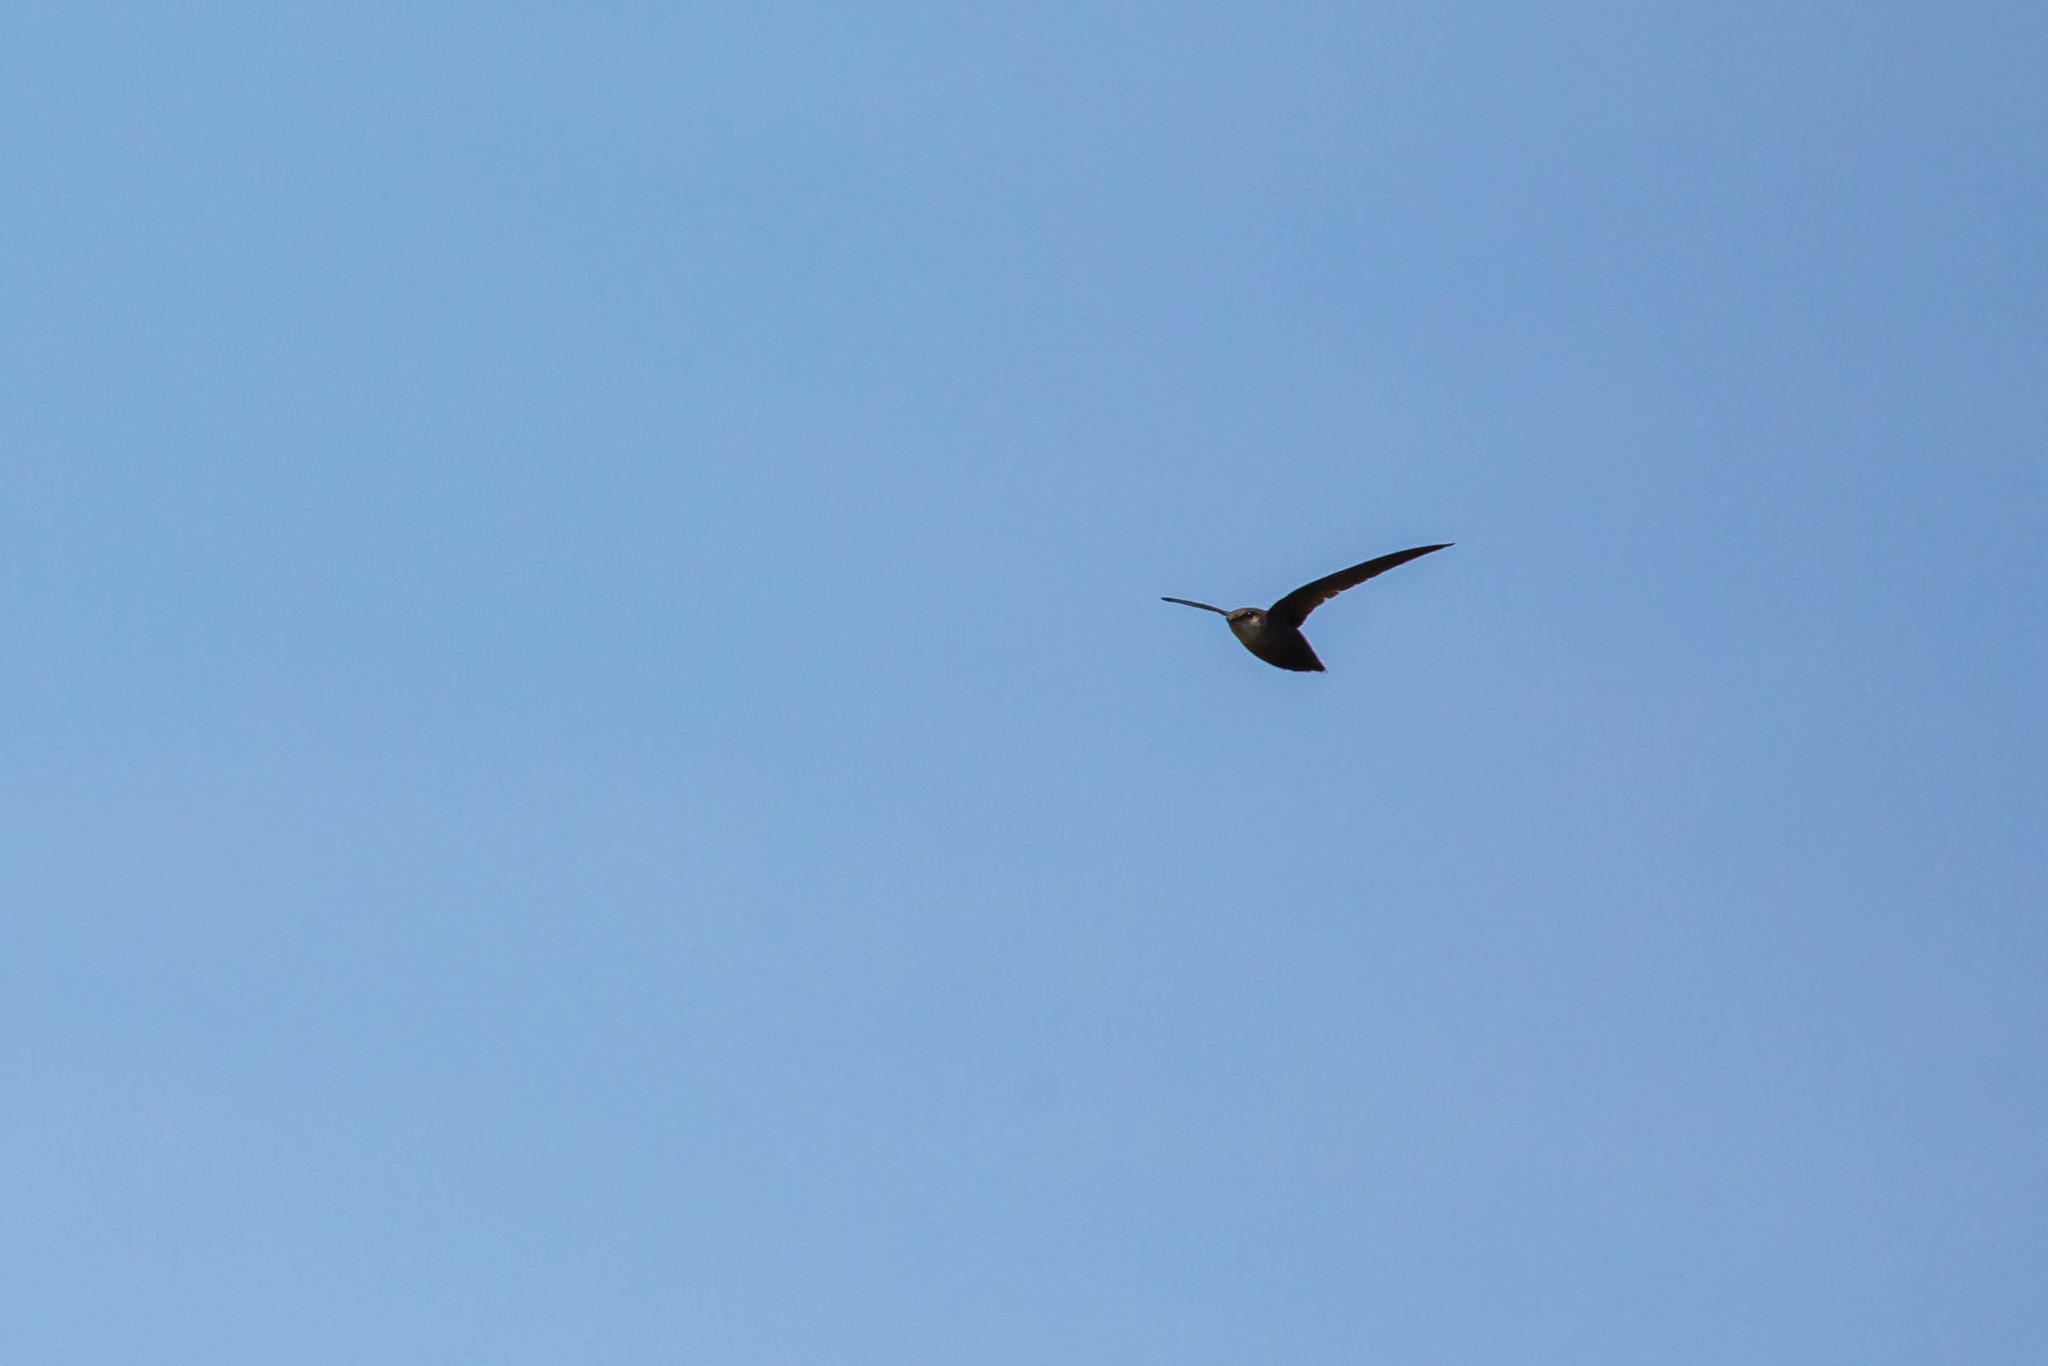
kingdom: Animalia
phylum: Chordata
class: Aves
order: Apodiformes
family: Apodidae
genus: Chaetura
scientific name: Chaetura pelagica
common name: Chimney swift
